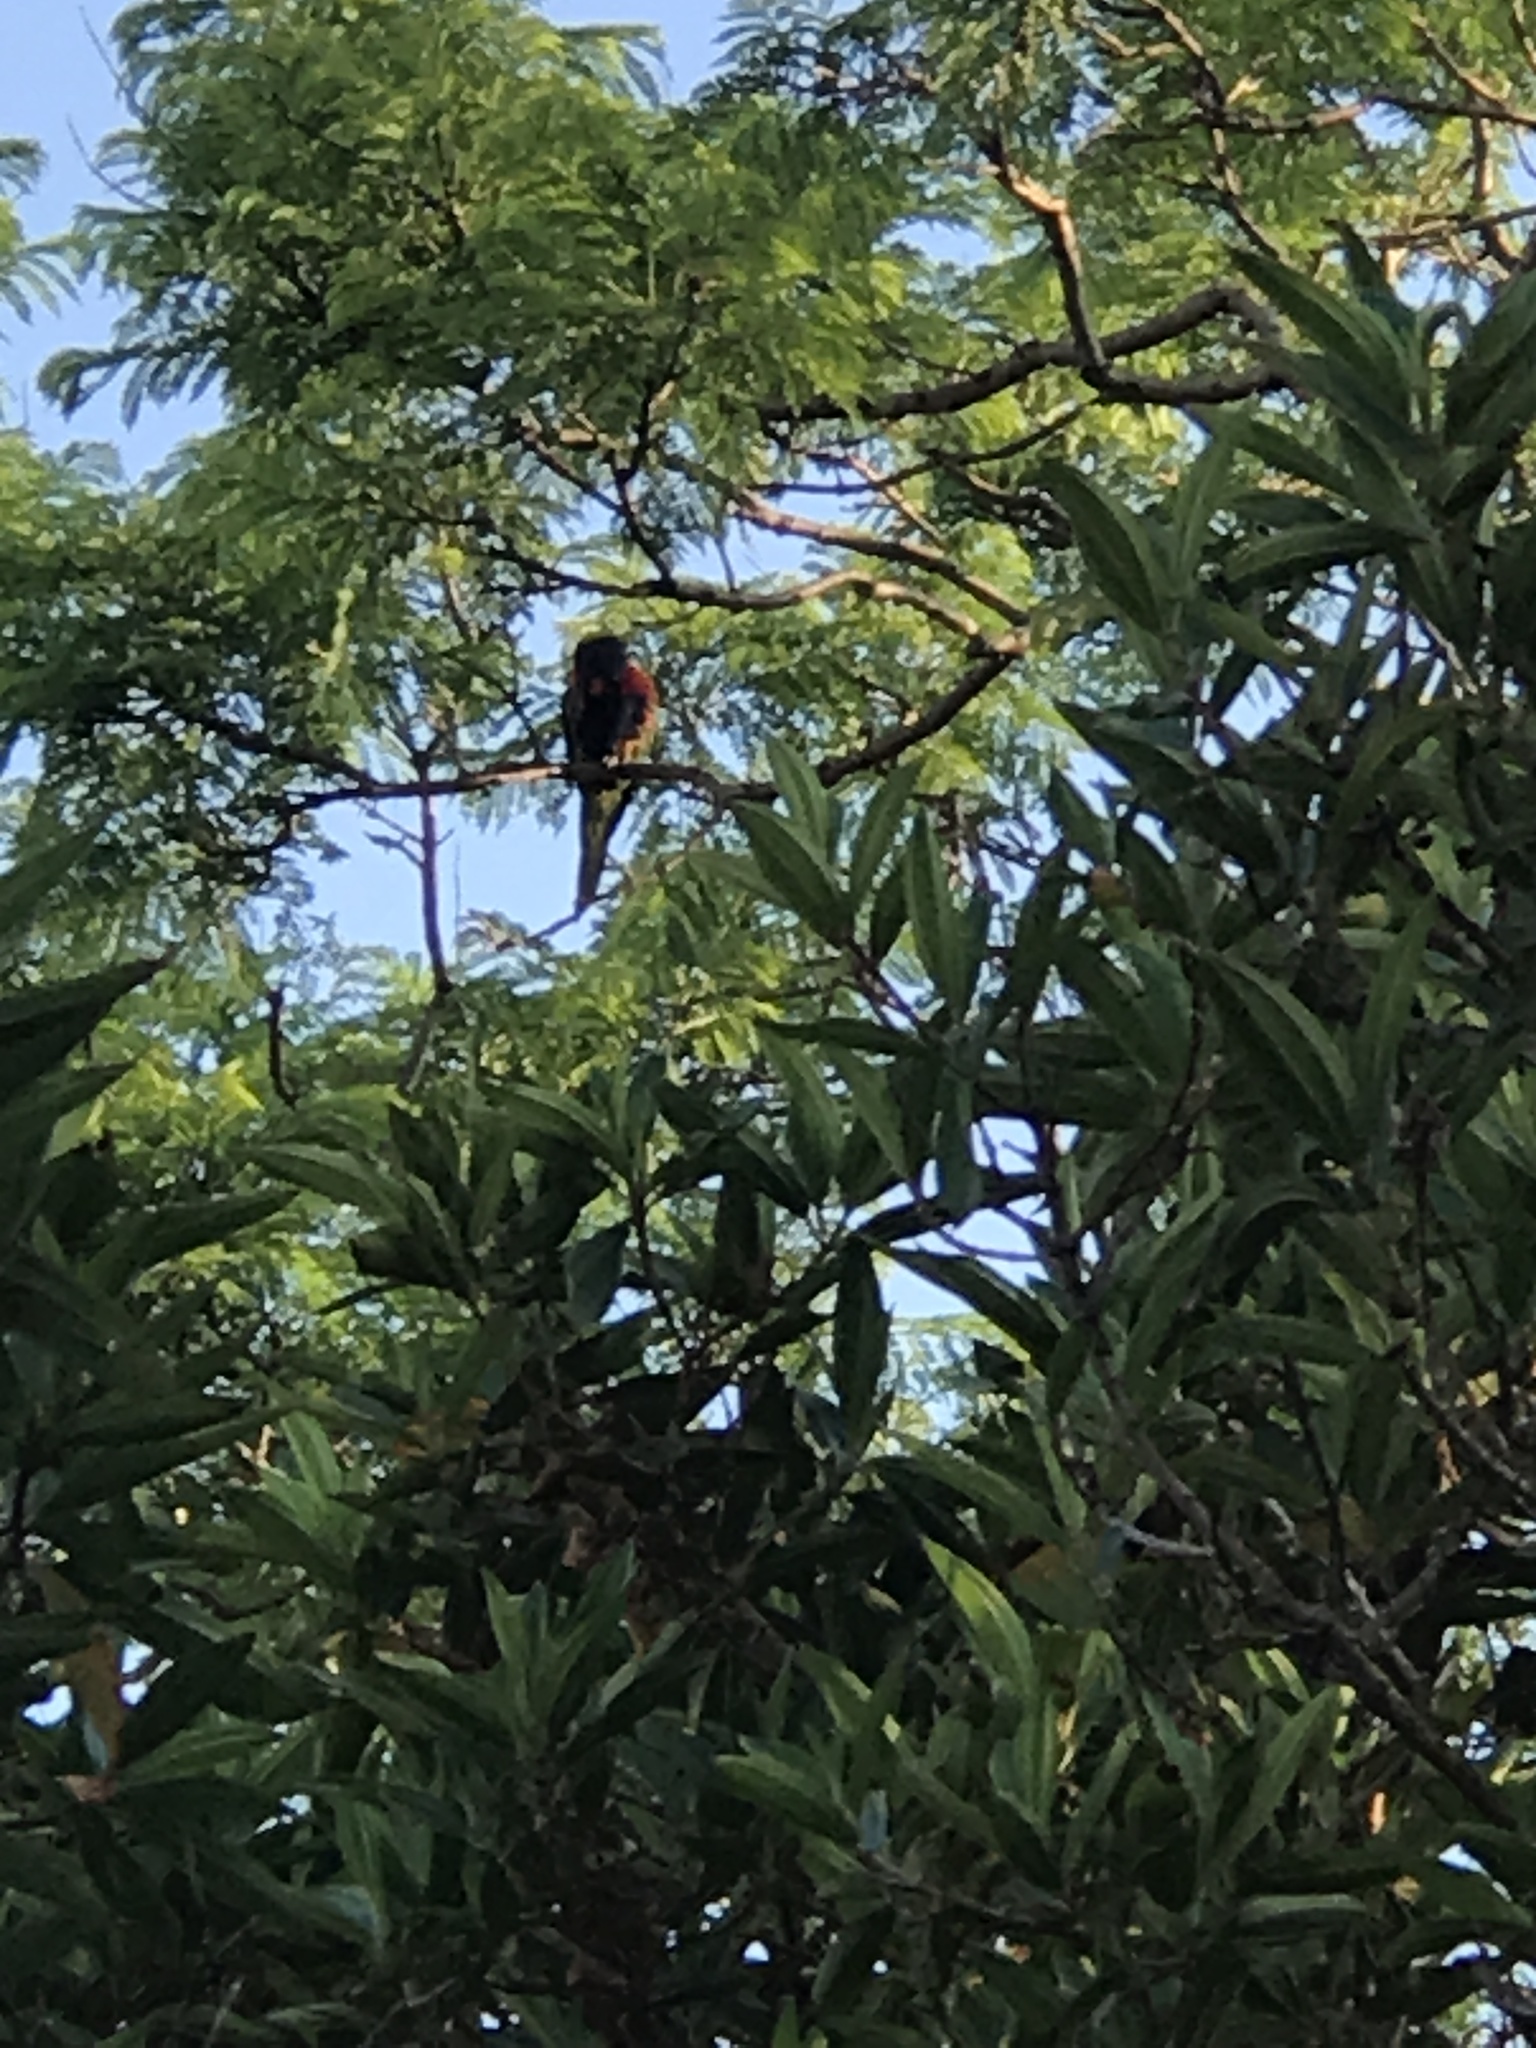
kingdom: Animalia
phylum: Chordata
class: Aves
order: Psittaciformes
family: Psittacidae
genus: Trichoglossus
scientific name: Trichoglossus haematodus
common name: Coconut lorikeet
